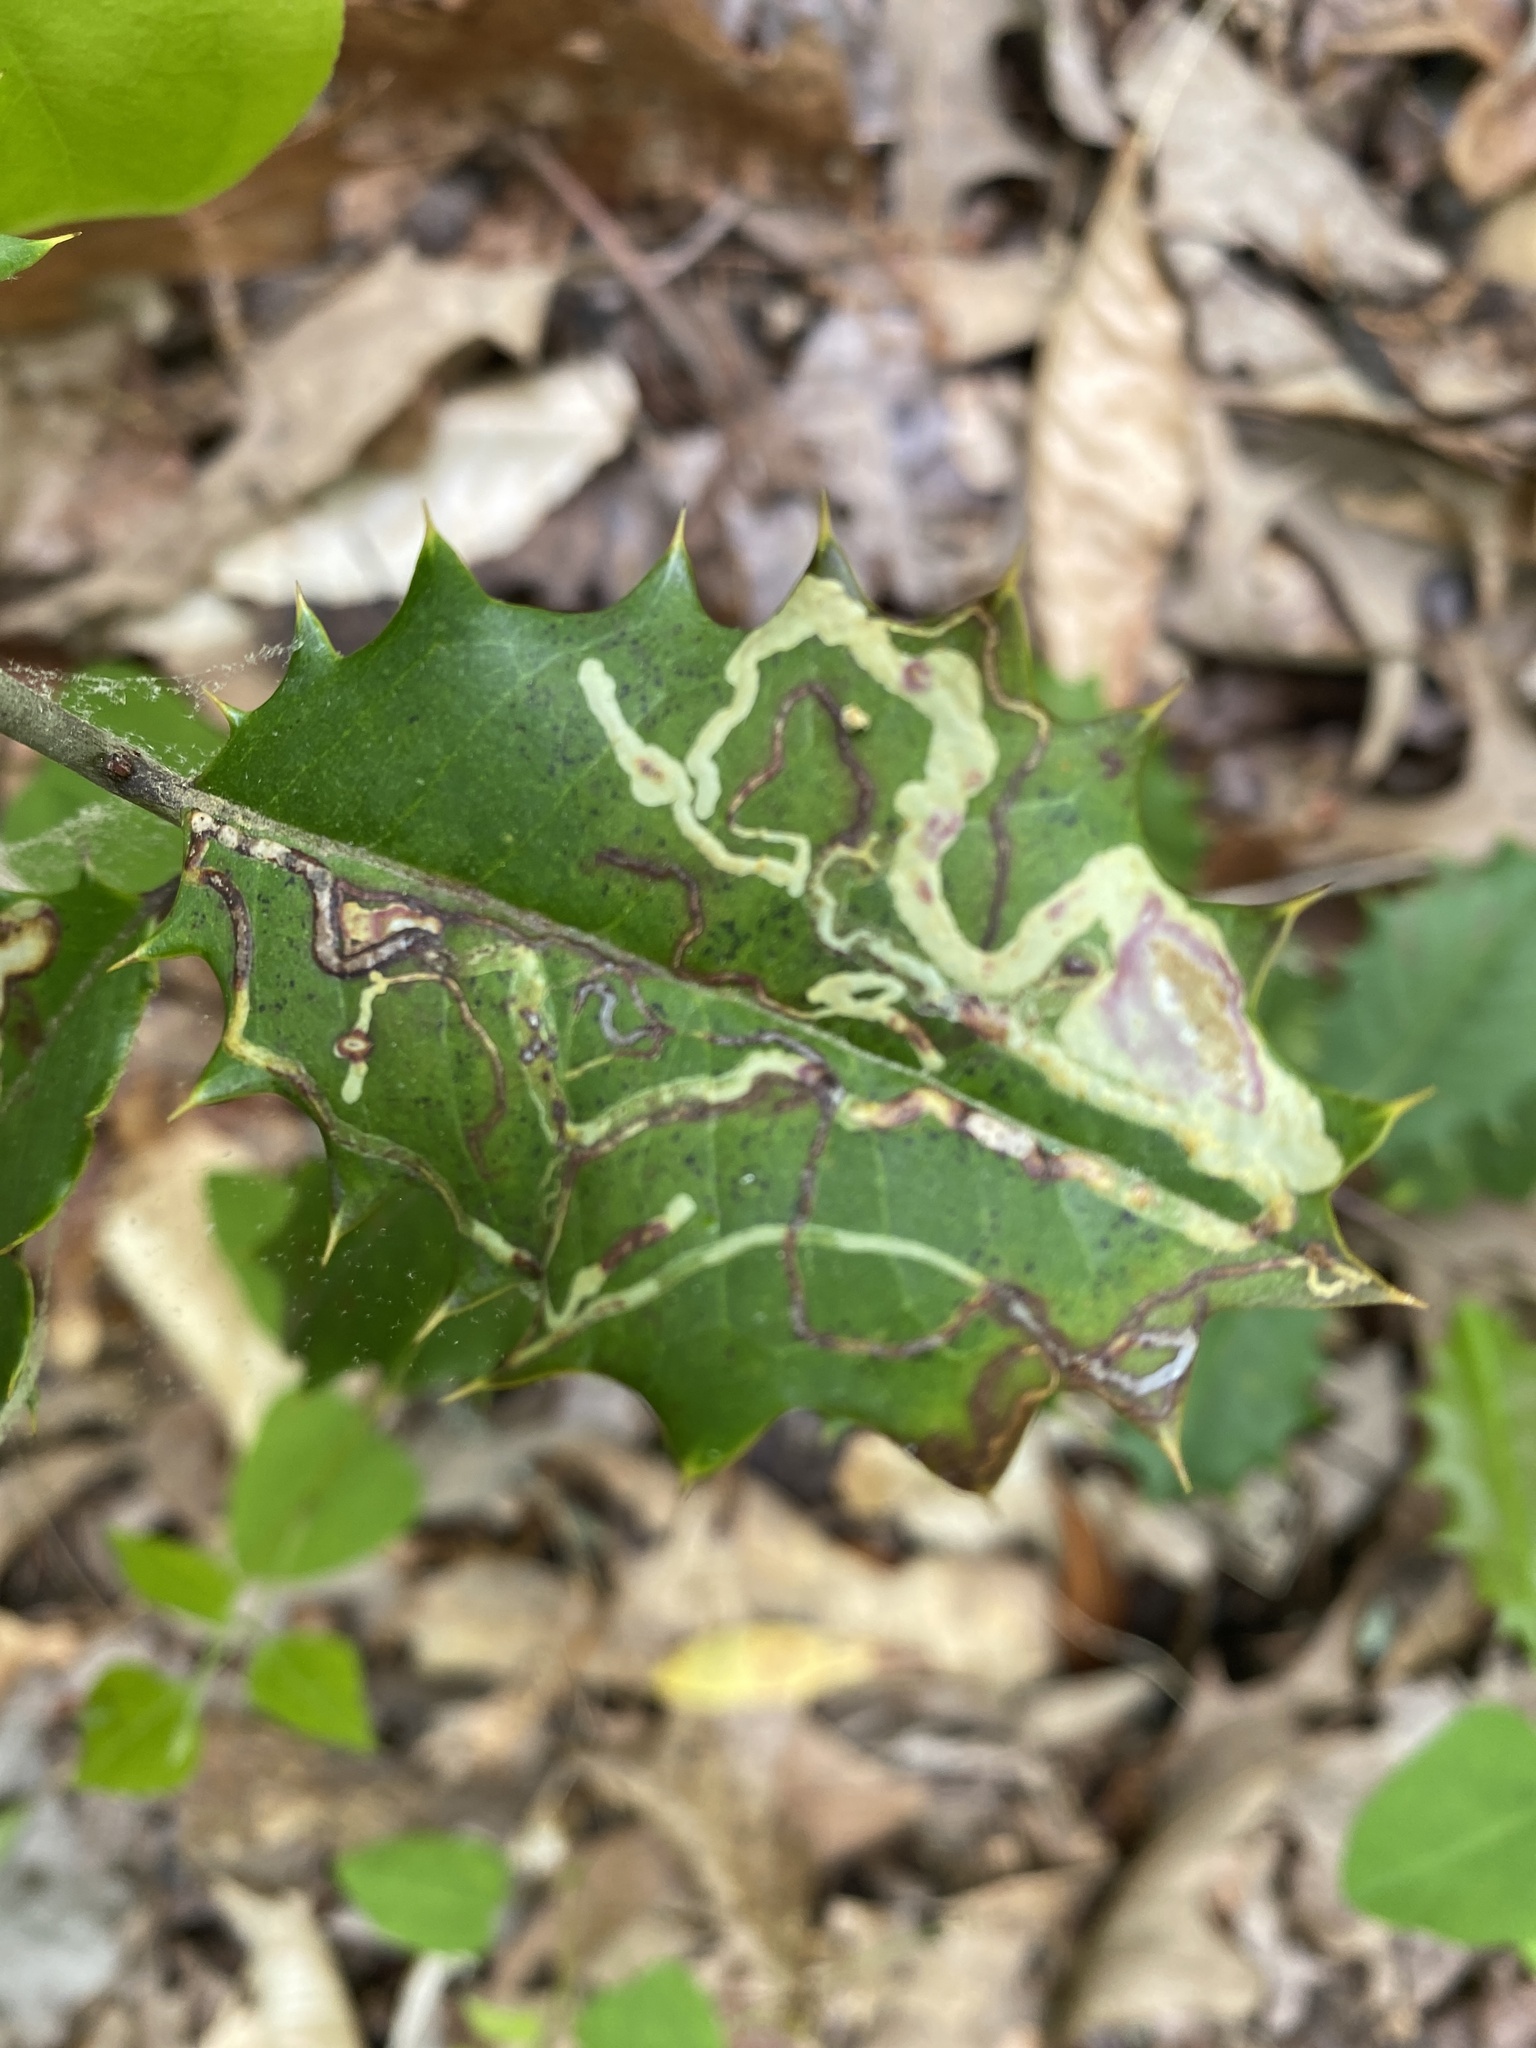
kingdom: Animalia
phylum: Arthropoda
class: Insecta
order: Diptera
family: Agromyzidae
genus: Phytomyza
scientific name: Phytomyza opacae
